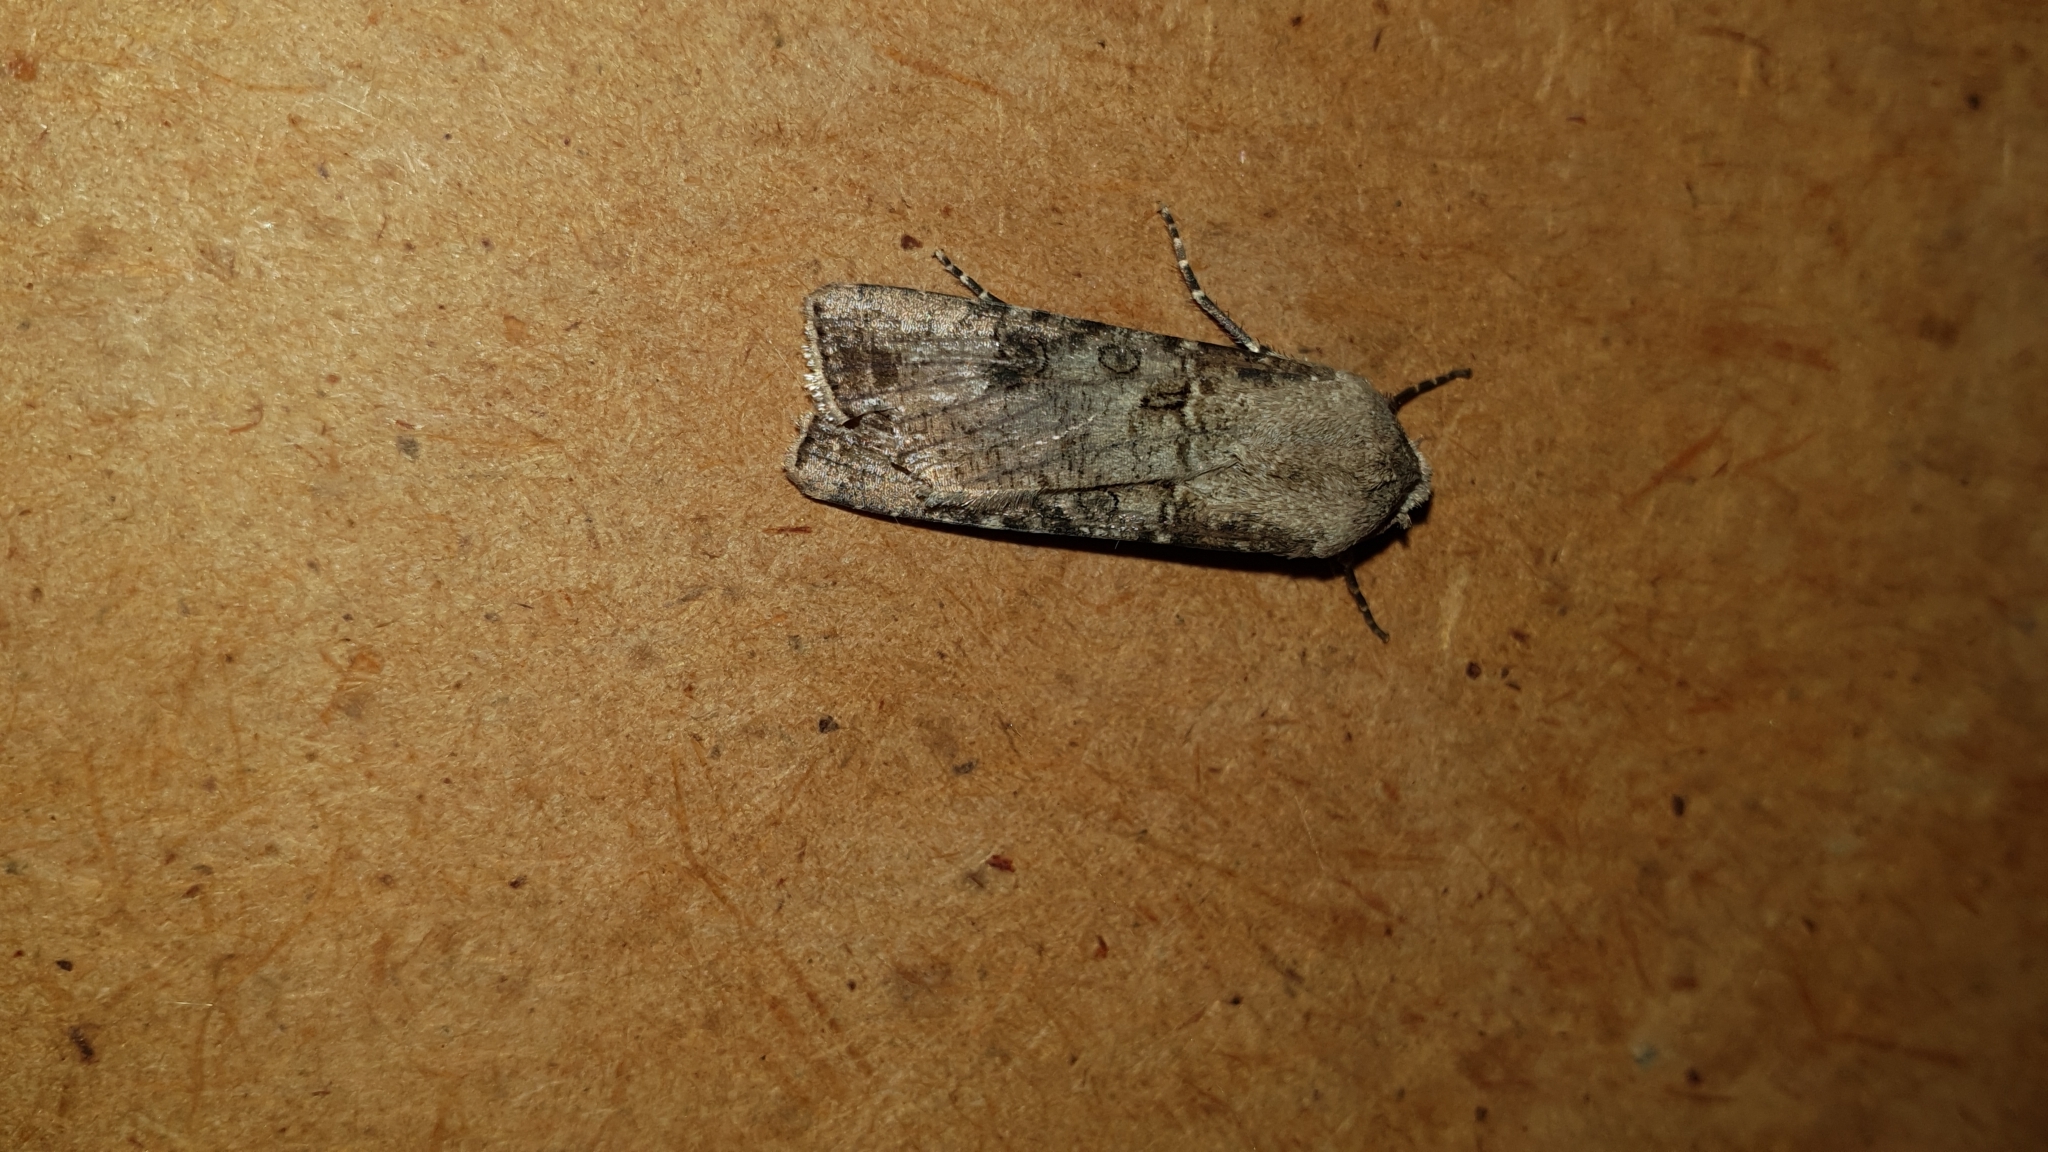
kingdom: Animalia
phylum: Arthropoda
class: Insecta
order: Lepidoptera
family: Noctuidae
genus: Agrotis
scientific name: Agrotis segetum
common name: Turnip moth
